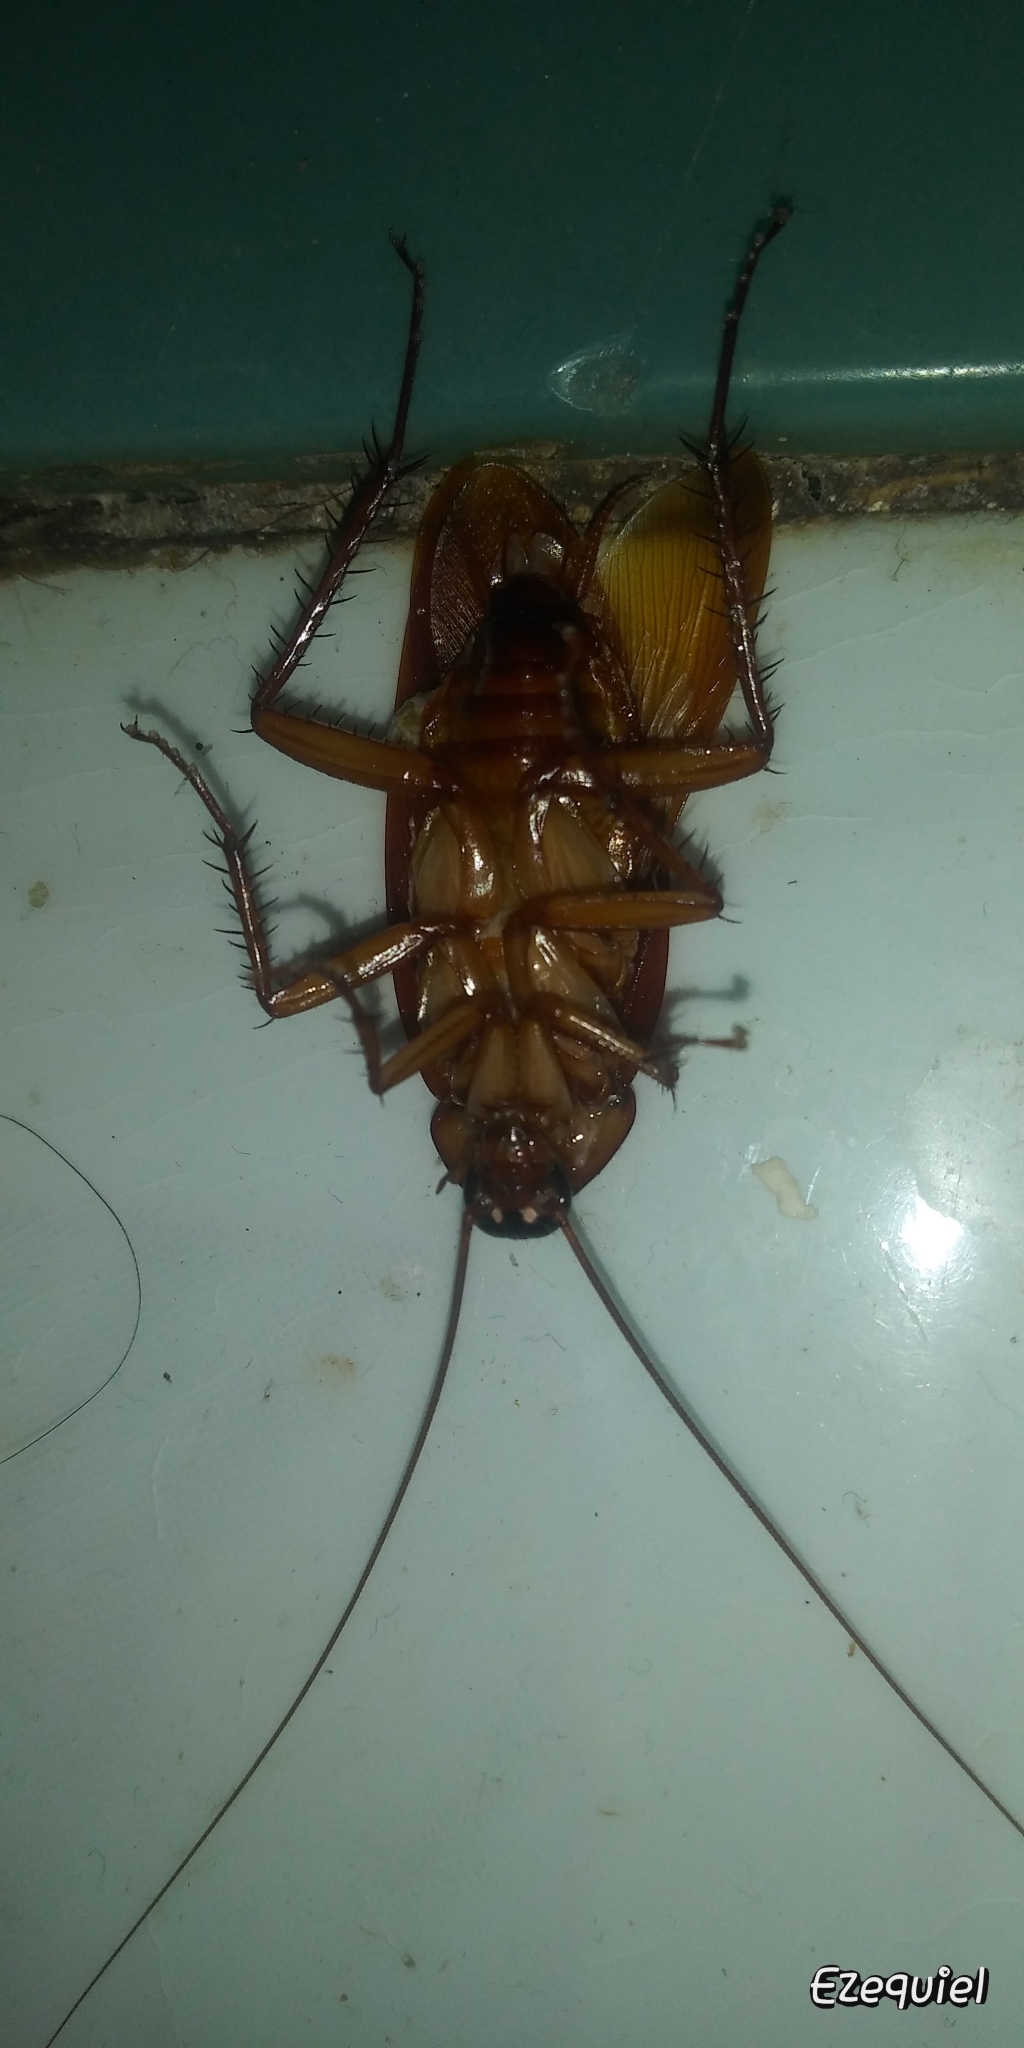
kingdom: Animalia
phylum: Arthropoda
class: Insecta
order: Blattodea
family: Blattidae
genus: Periplaneta
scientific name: Periplaneta americana
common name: American cockroach
